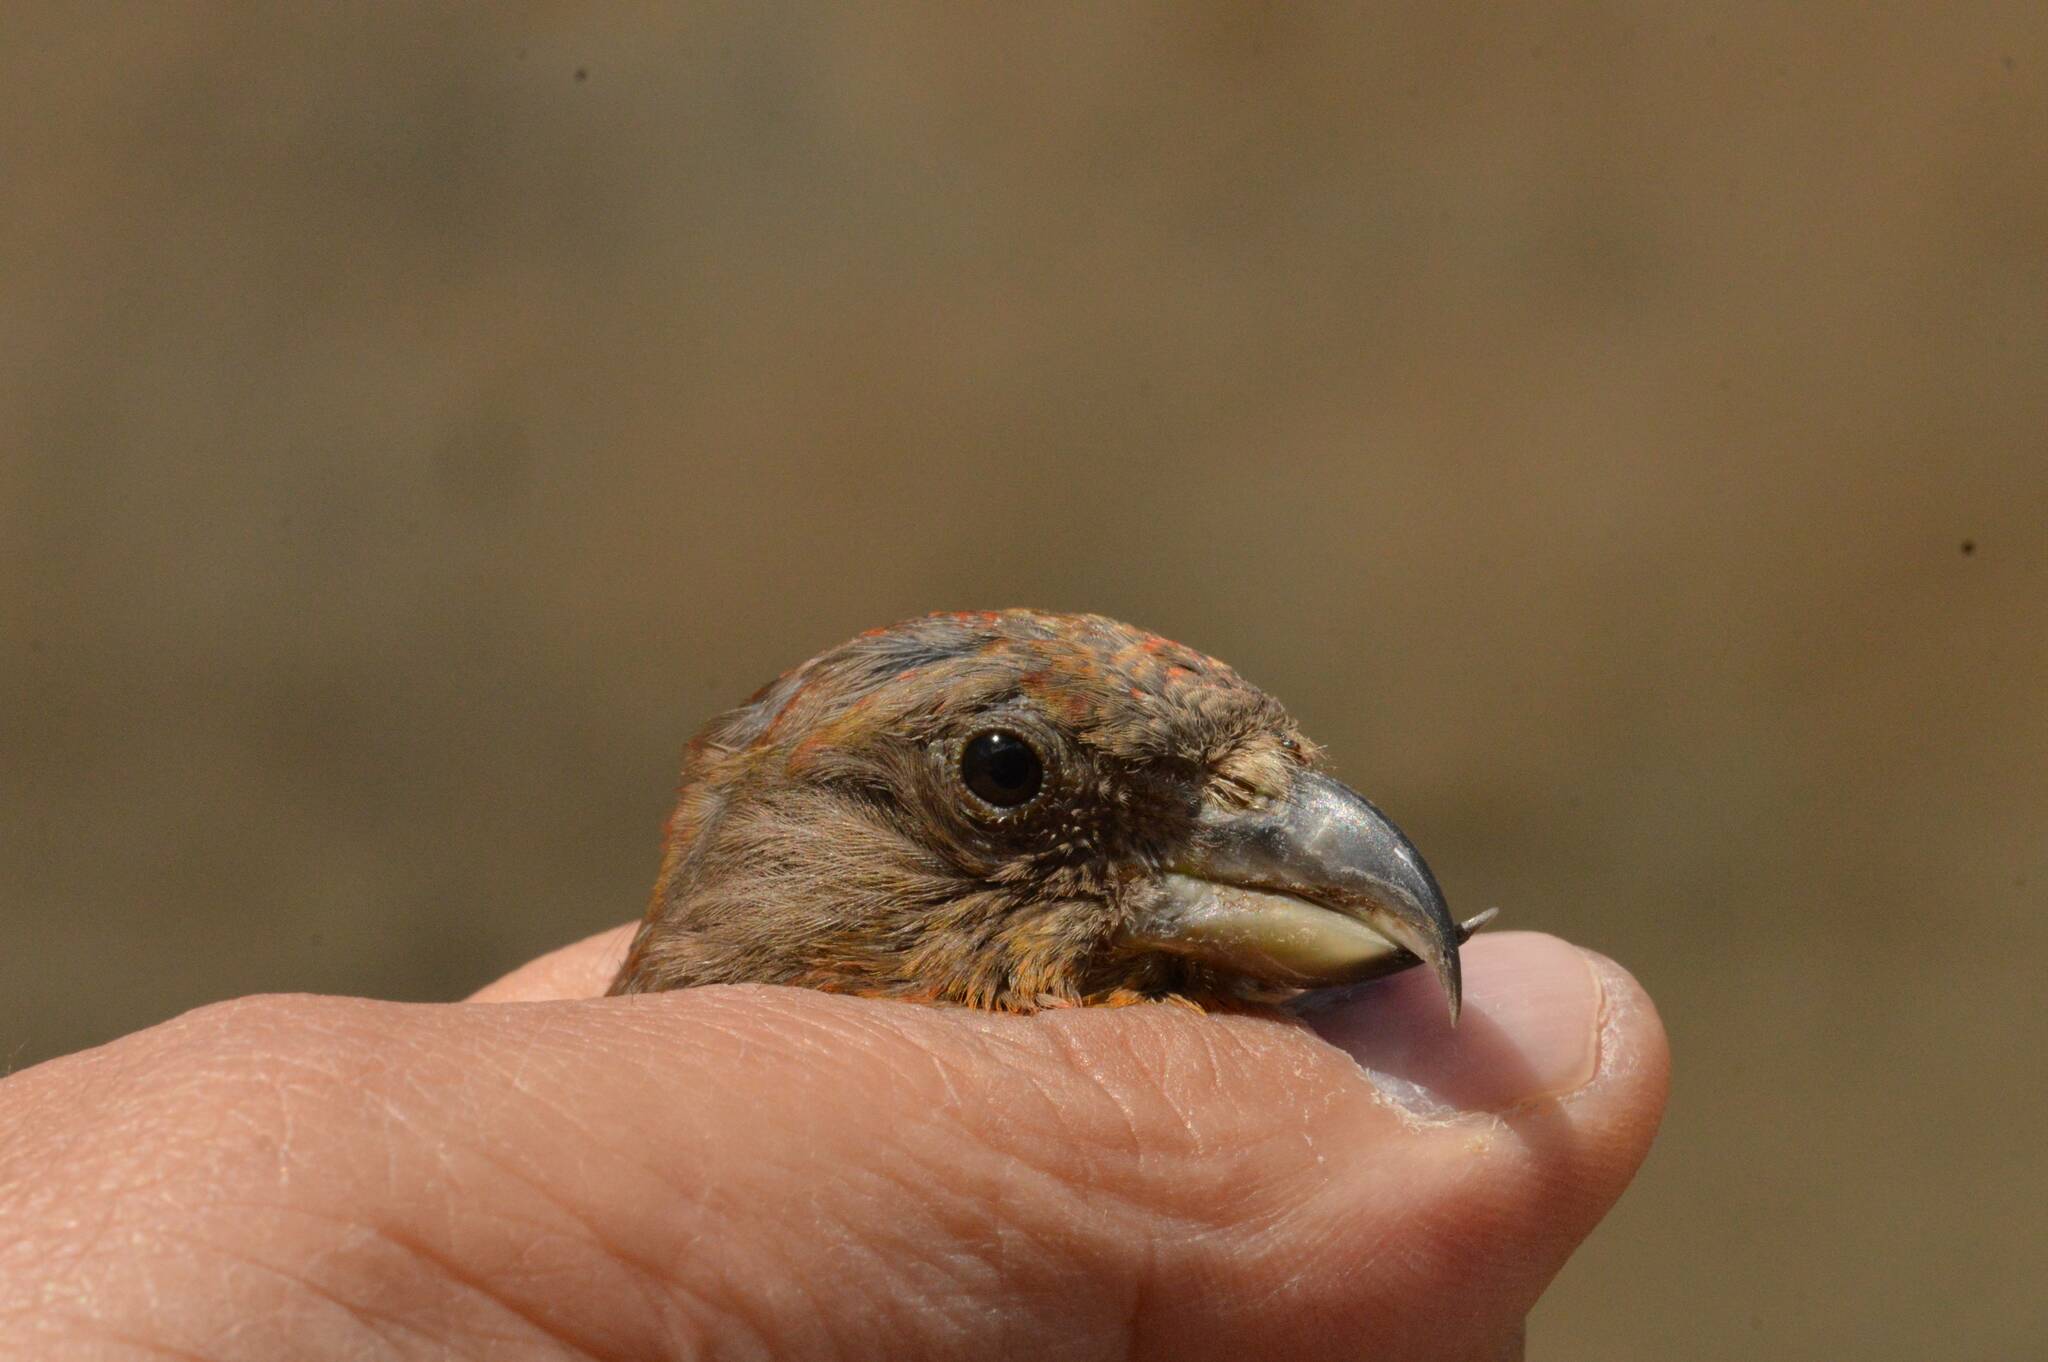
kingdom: Animalia
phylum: Chordata
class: Aves
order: Passeriformes
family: Fringillidae
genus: Loxia
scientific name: Loxia curvirostra
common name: Red crossbill
